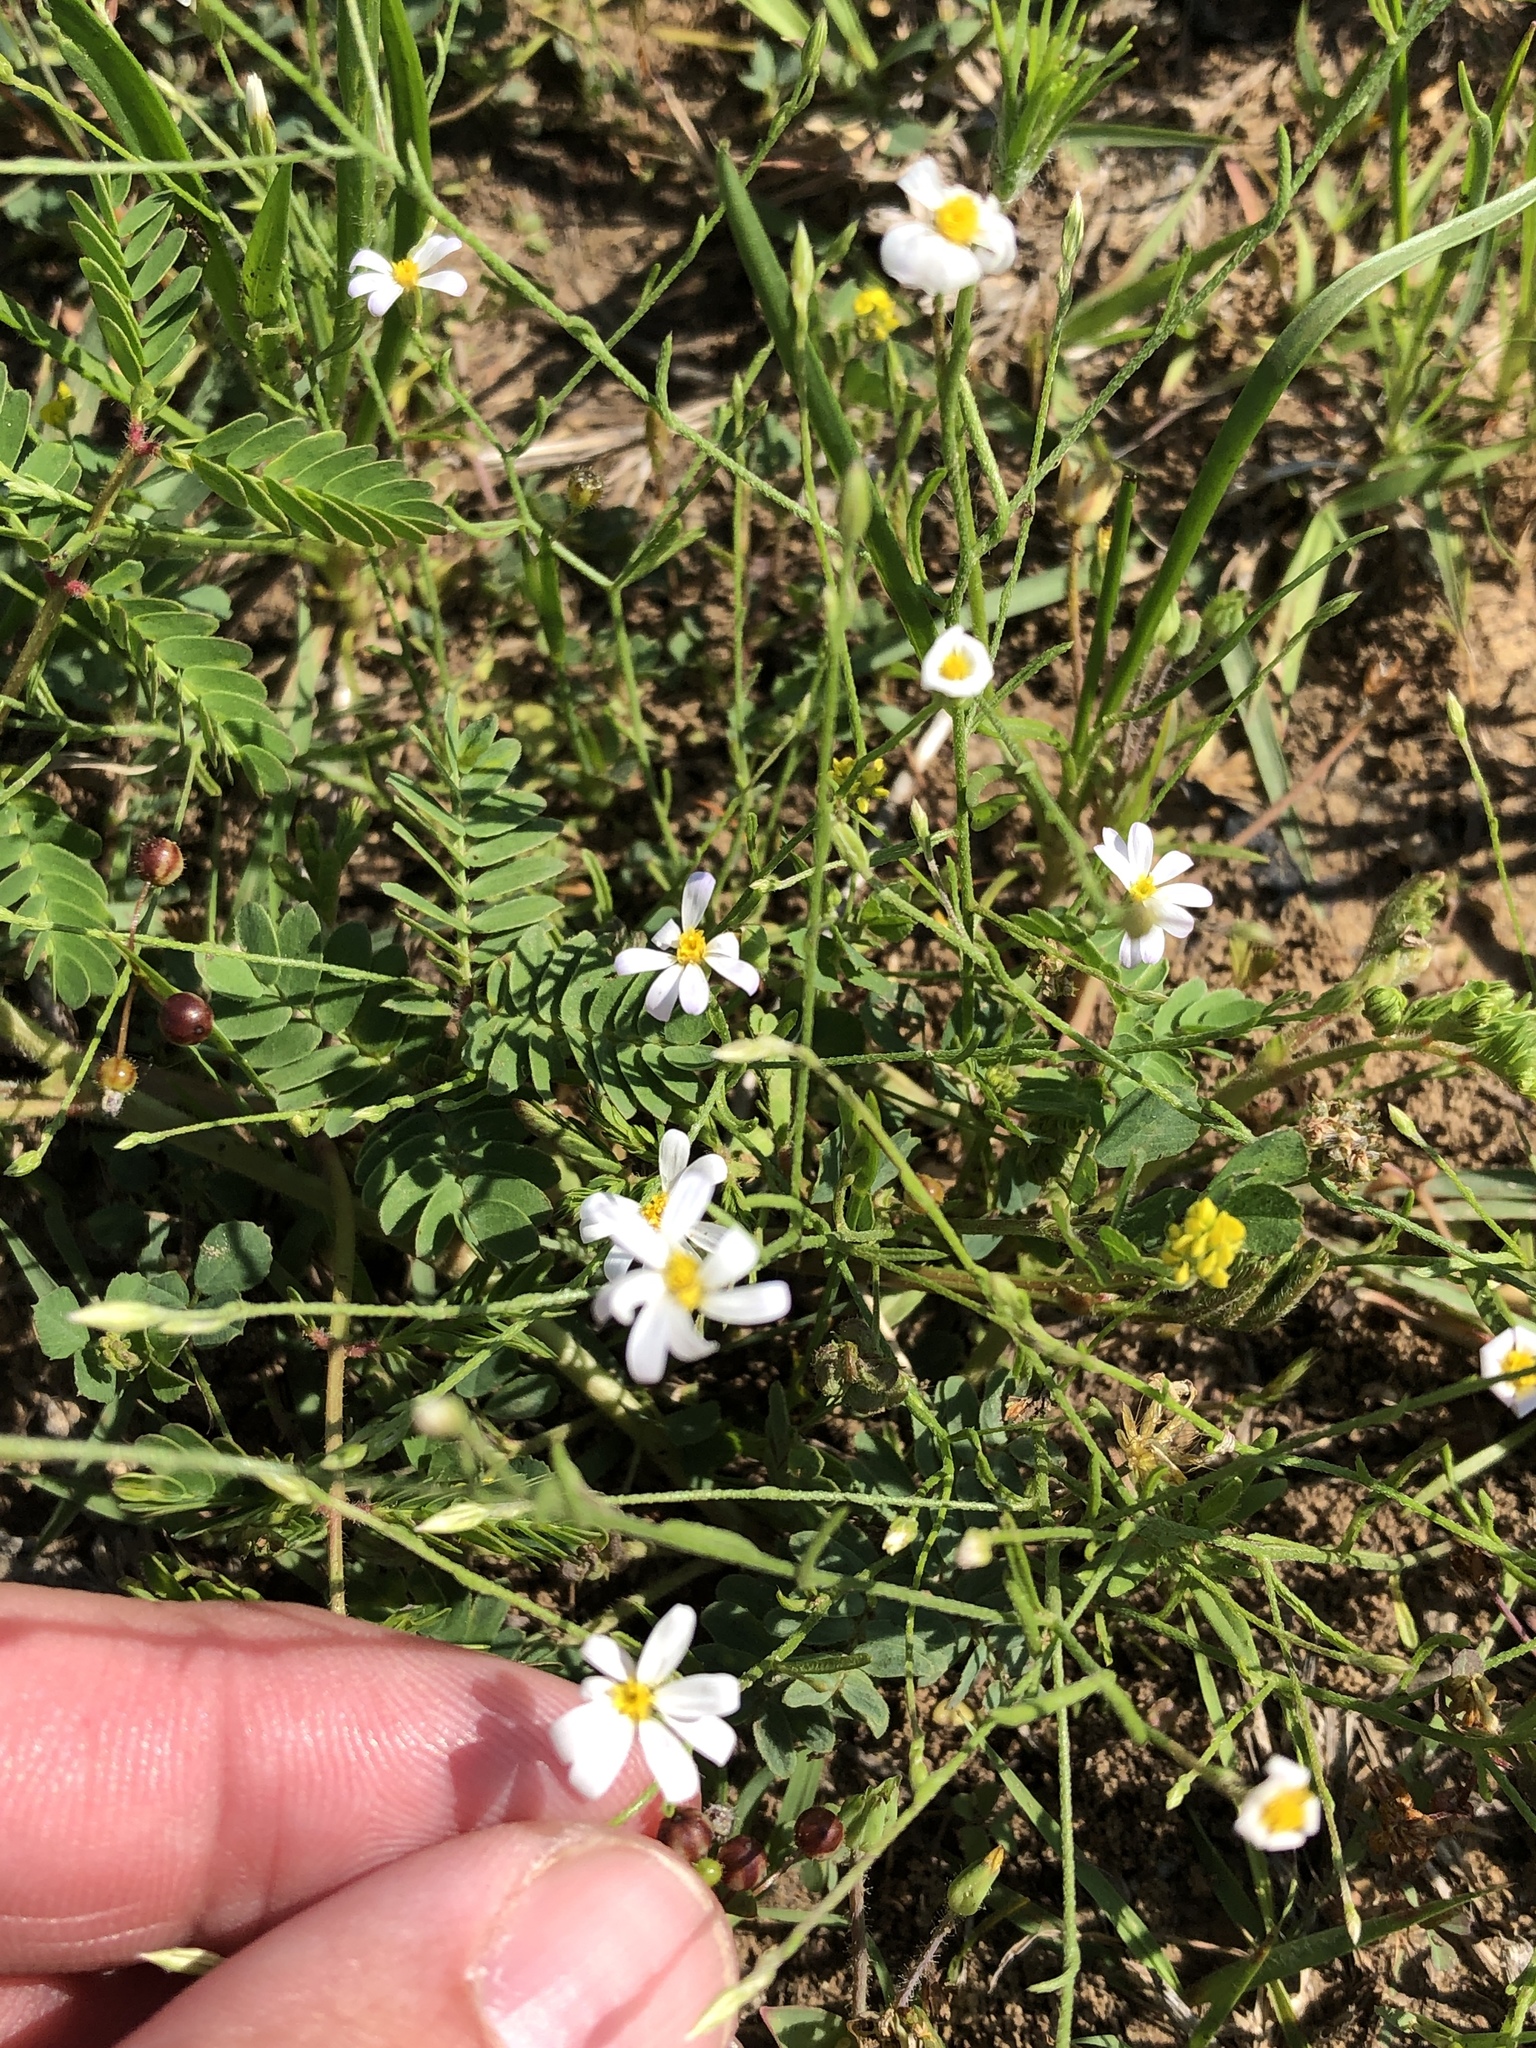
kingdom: Plantae
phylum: Tracheophyta
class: Magnoliopsida
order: Asterales
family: Asteraceae
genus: Chaetopappa
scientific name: Chaetopappa asteroides
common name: Tiny lazy daisy
